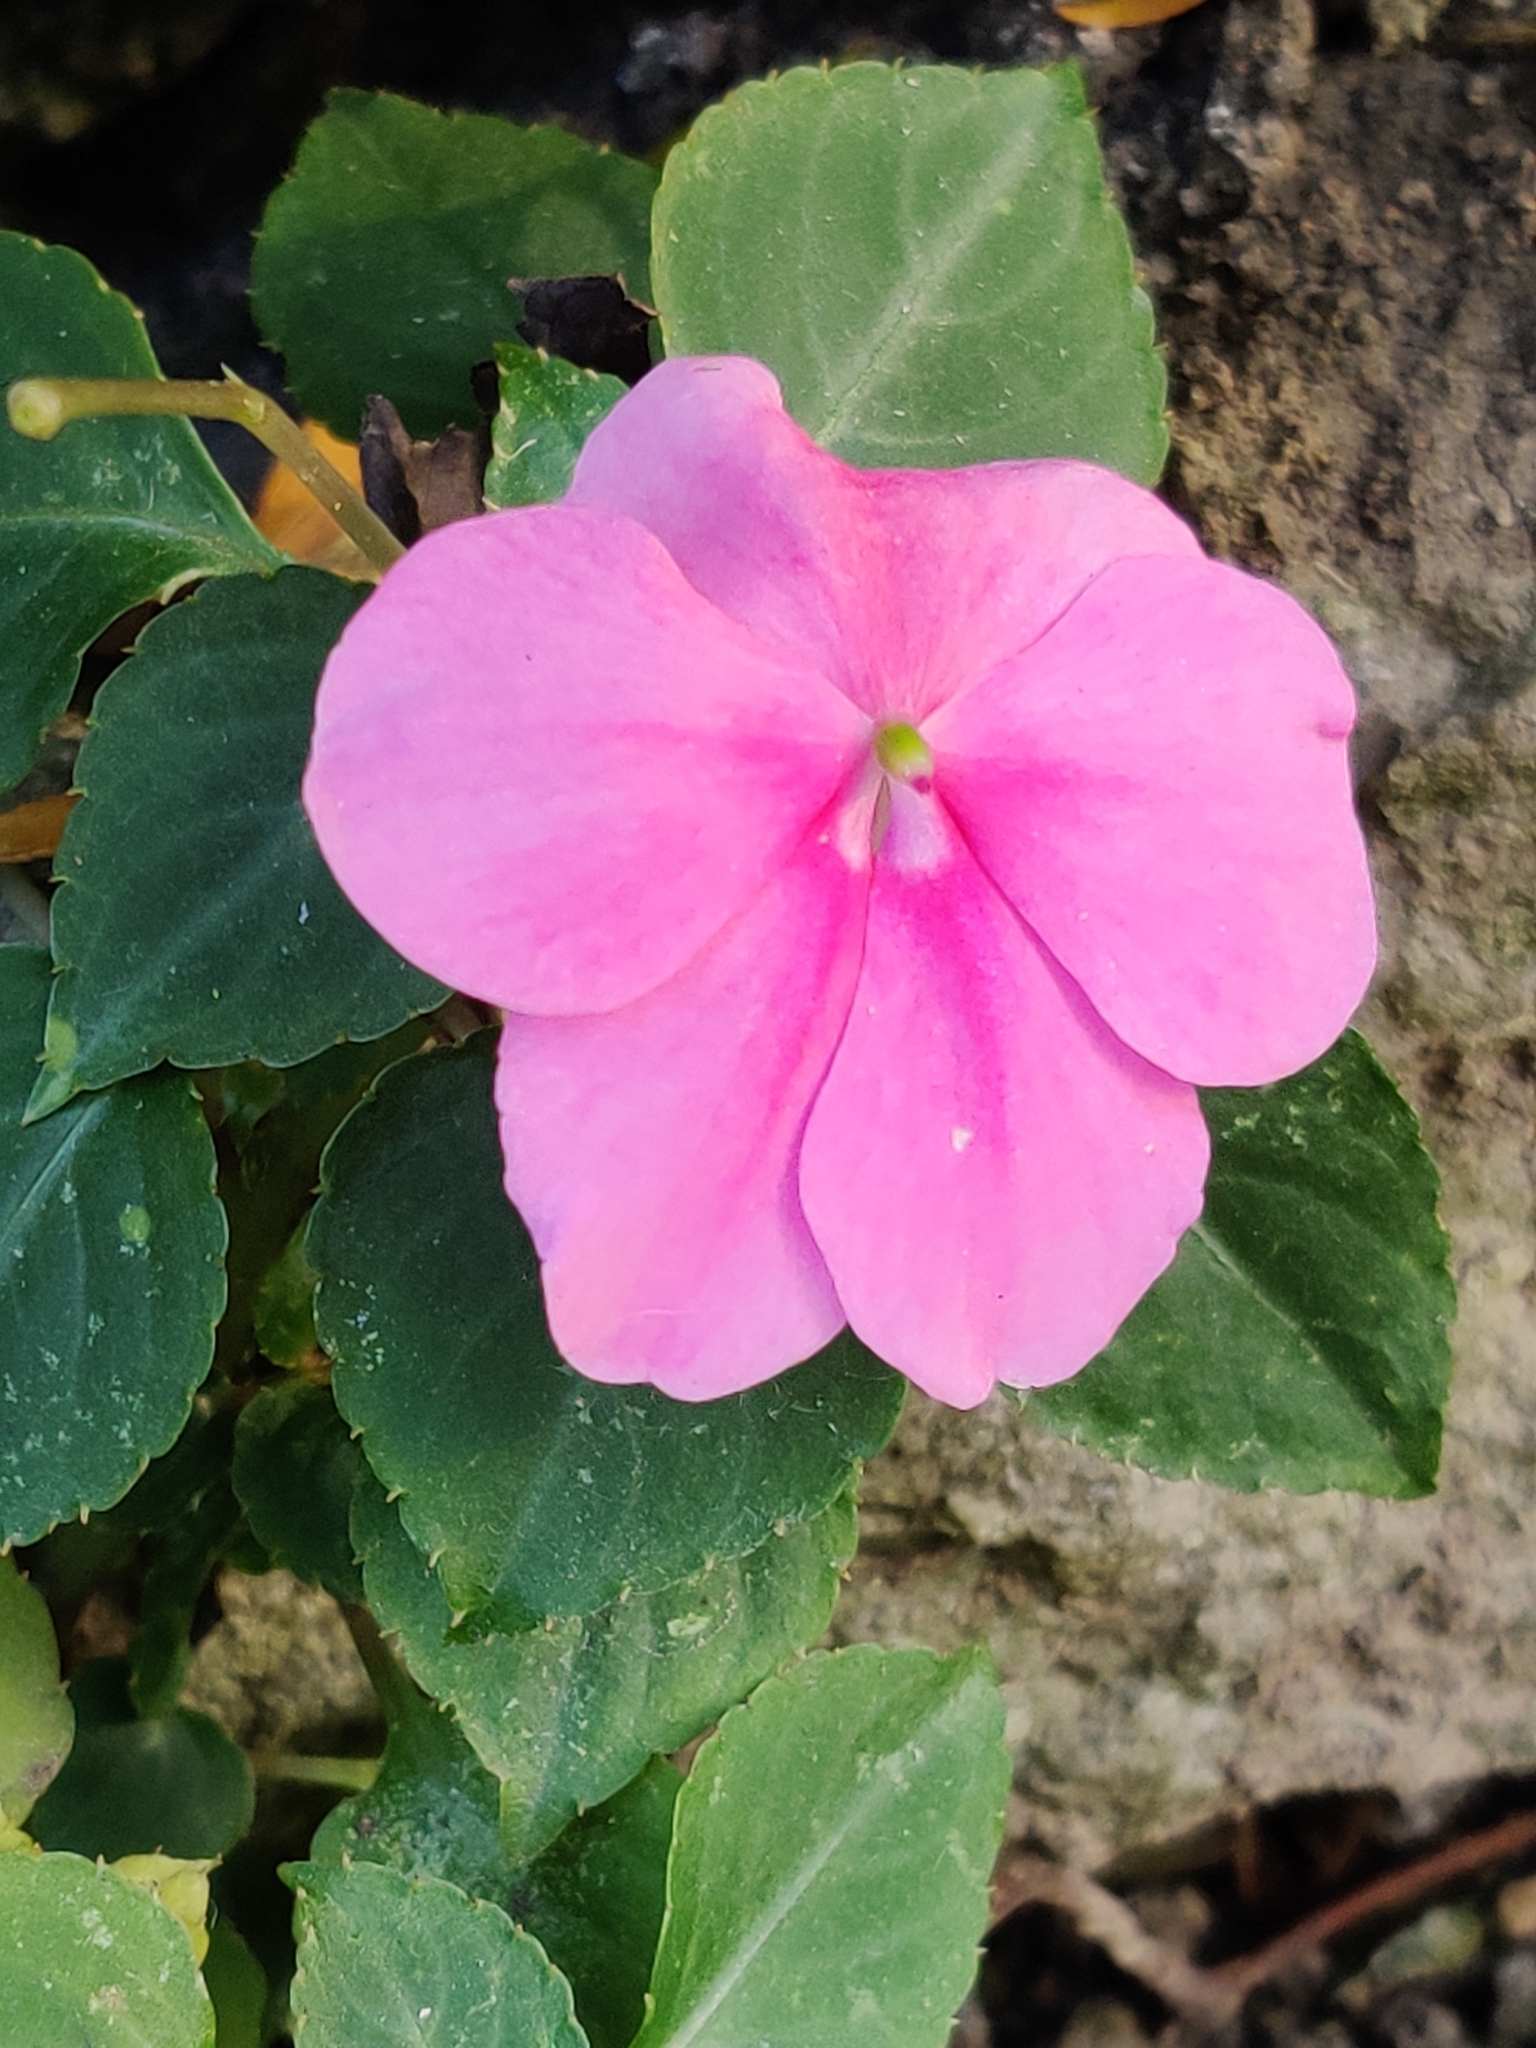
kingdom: Plantae
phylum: Tracheophyta
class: Magnoliopsida
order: Ericales
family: Balsaminaceae
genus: Impatiens
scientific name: Impatiens walleriana
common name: Buzzy lizzy
